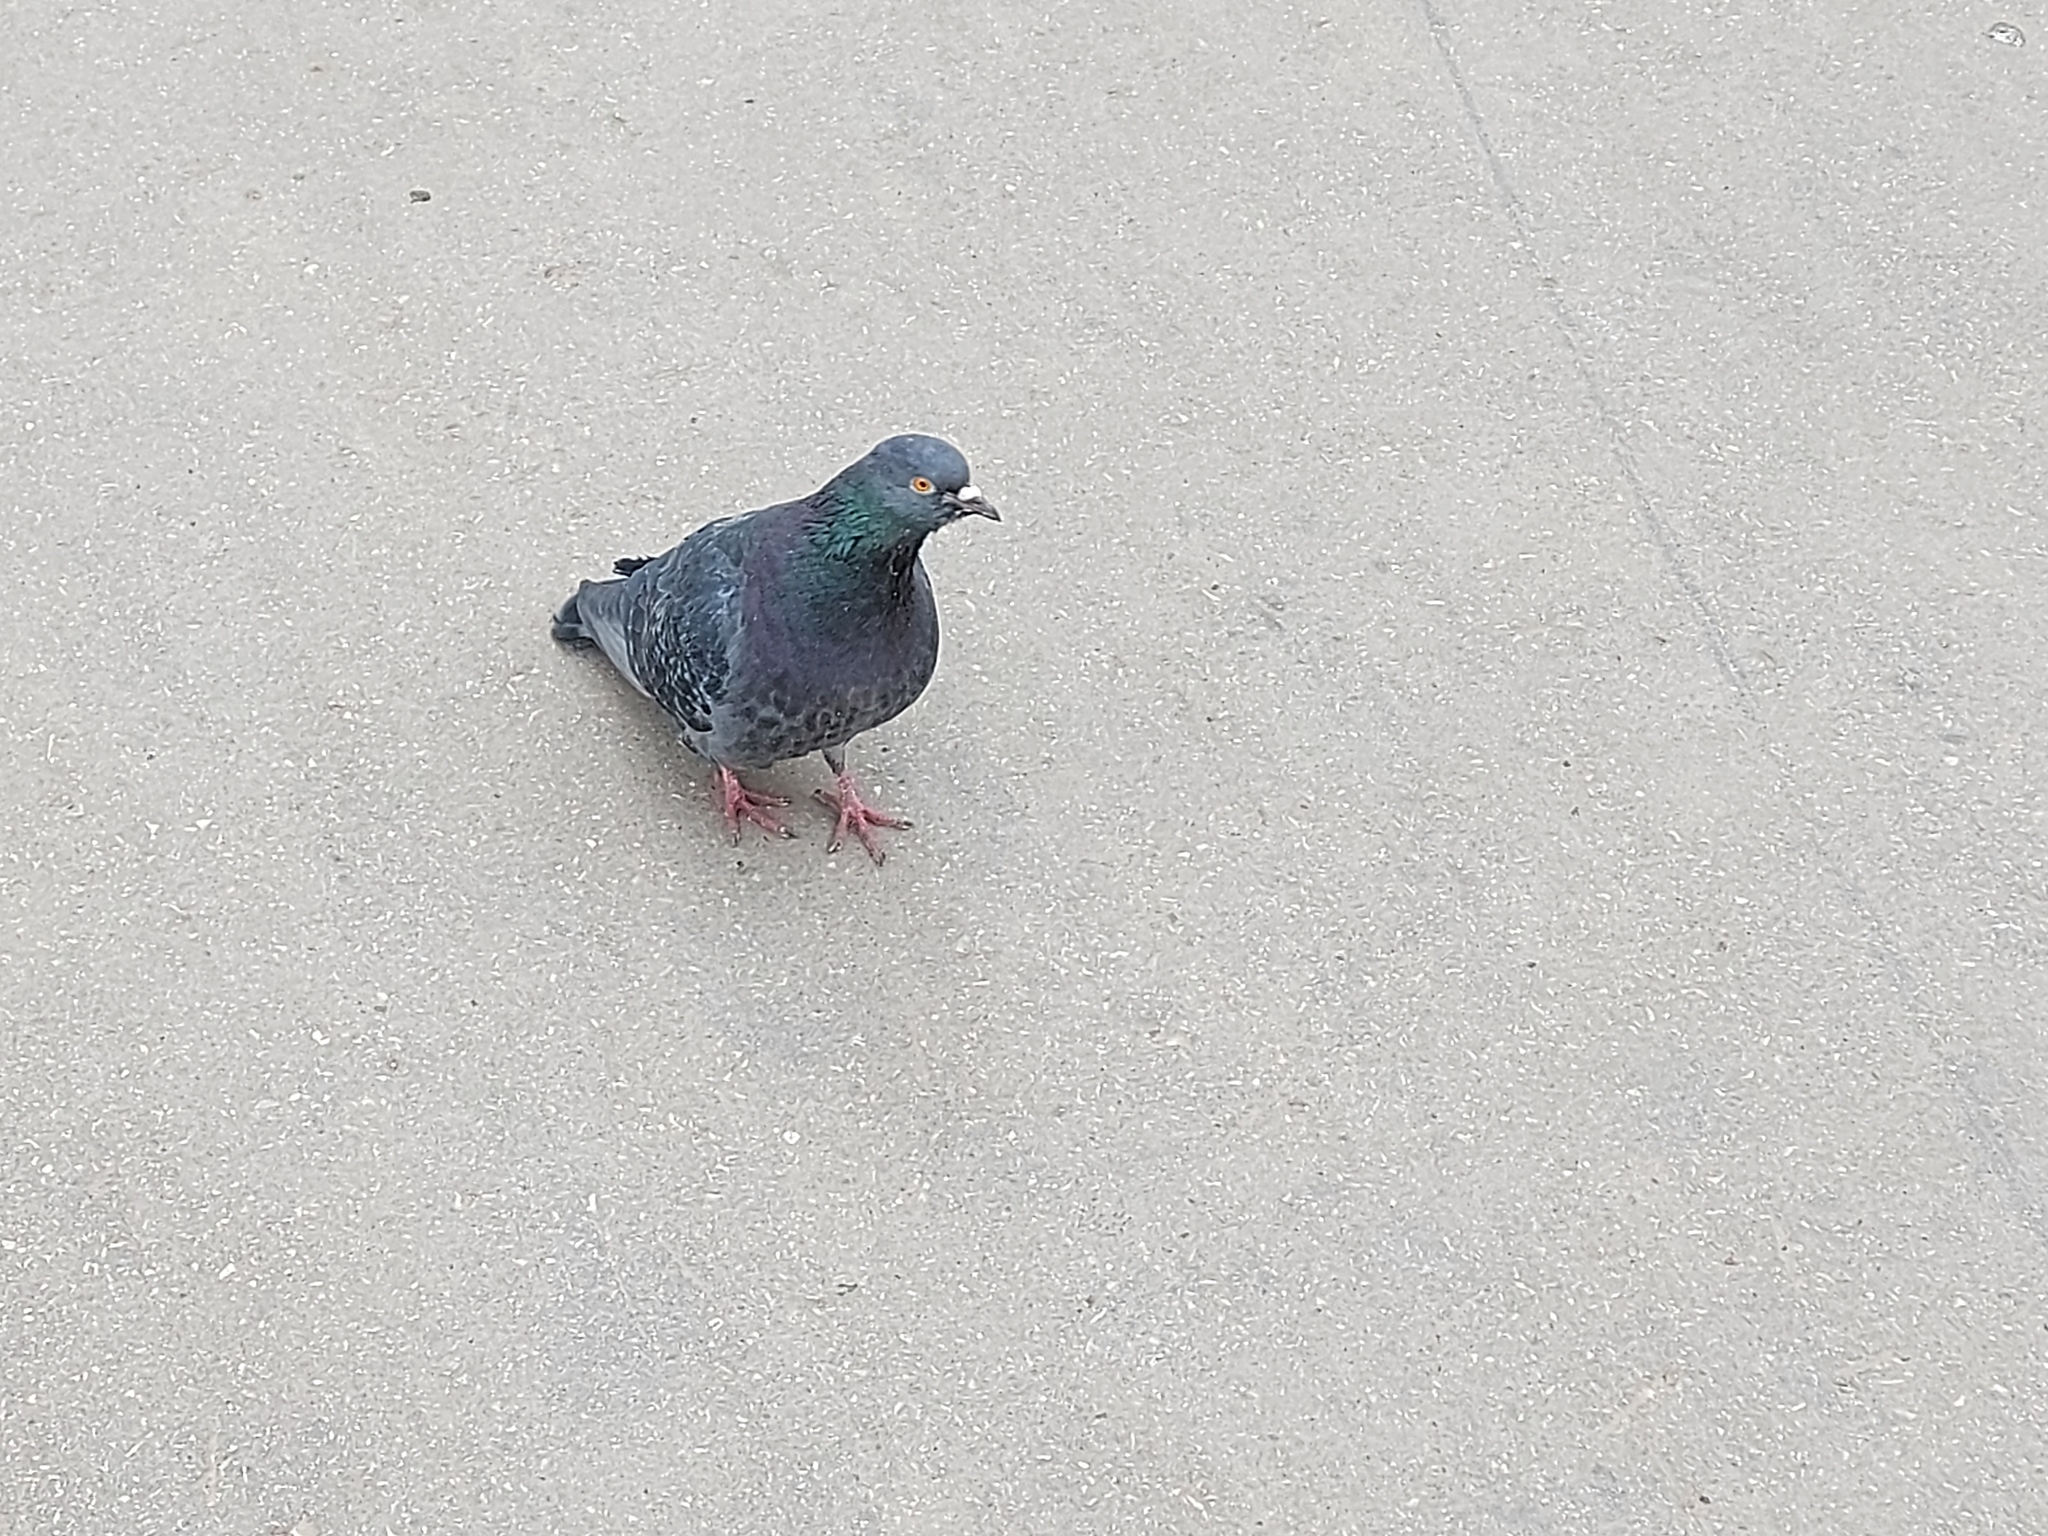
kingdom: Animalia
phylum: Chordata
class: Aves
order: Columbiformes
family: Columbidae
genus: Columba
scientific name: Columba livia
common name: Rock pigeon
